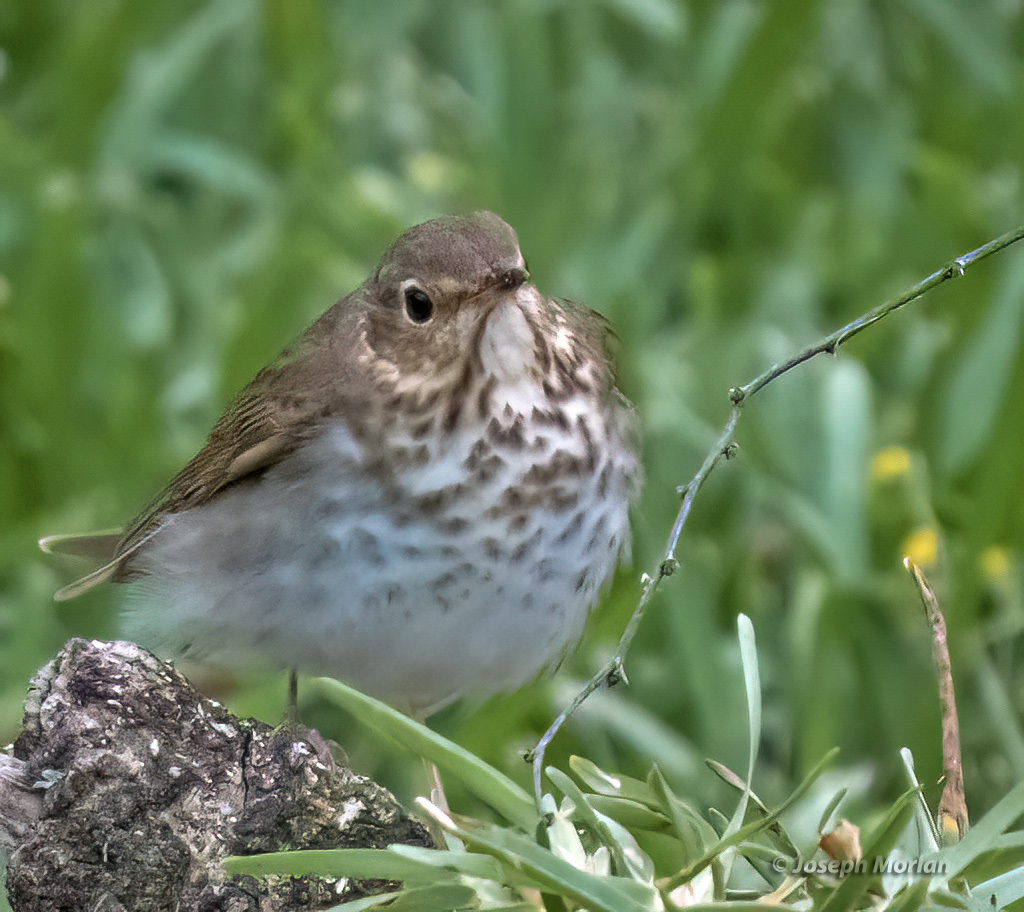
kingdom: Animalia
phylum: Chordata
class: Aves
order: Passeriformes
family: Turdidae
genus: Catharus
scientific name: Catharus ustulatus
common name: Swainson's thrush
